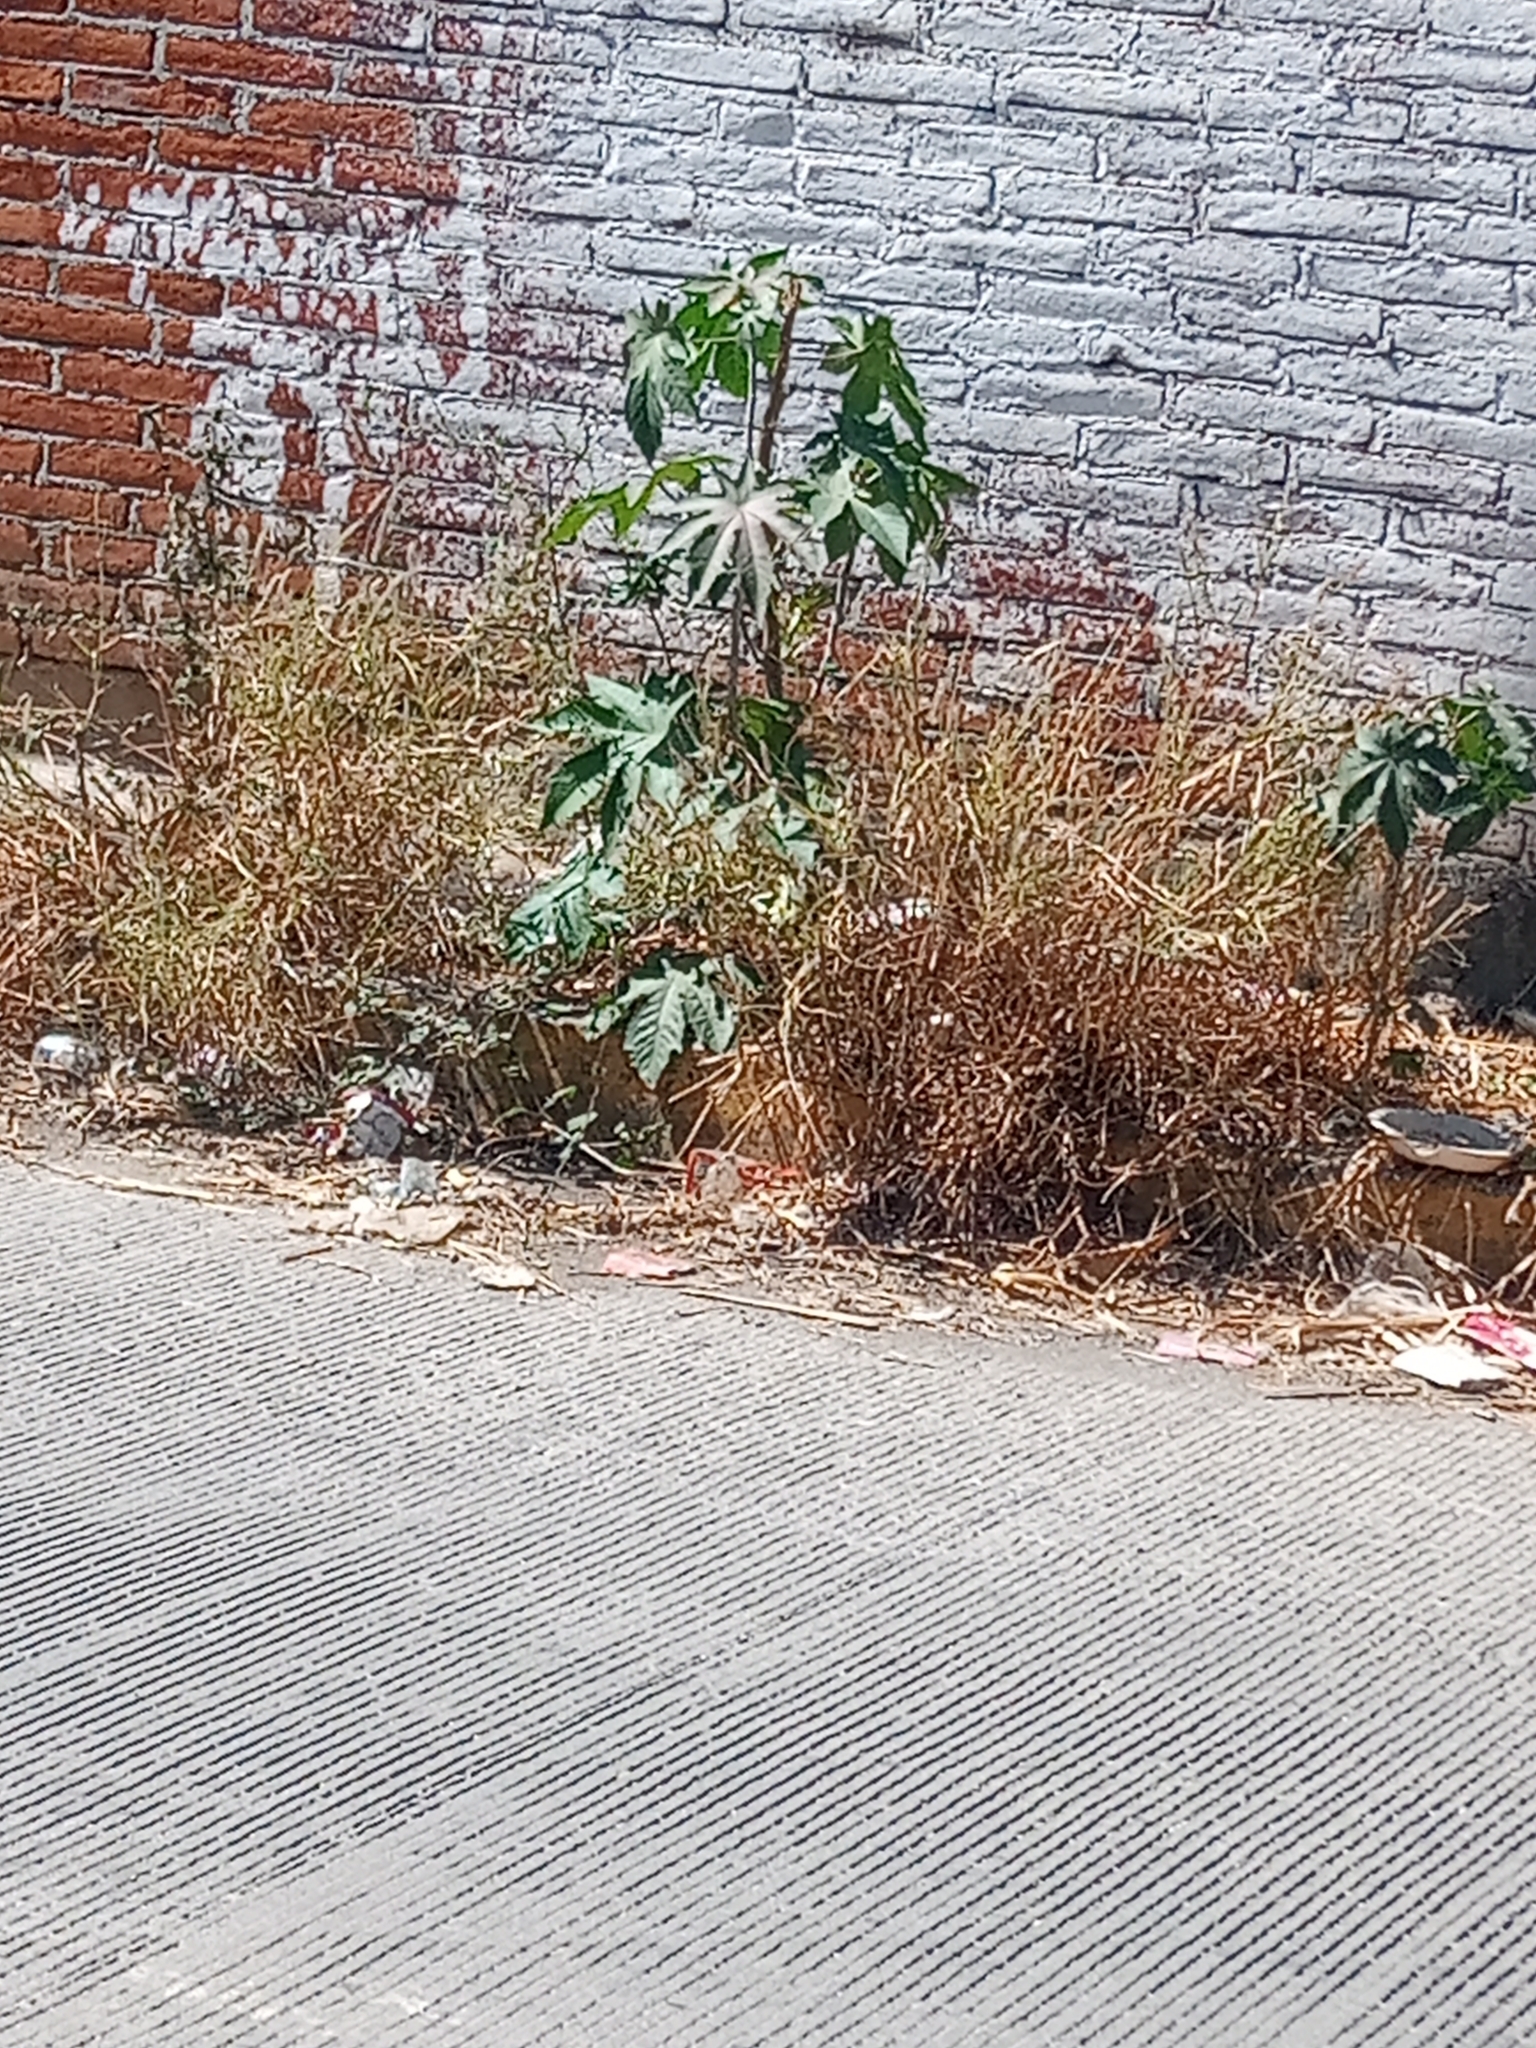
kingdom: Plantae
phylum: Tracheophyta
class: Magnoliopsida
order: Malpighiales
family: Euphorbiaceae
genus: Ricinus
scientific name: Ricinus communis
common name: Castor-oil-plant
